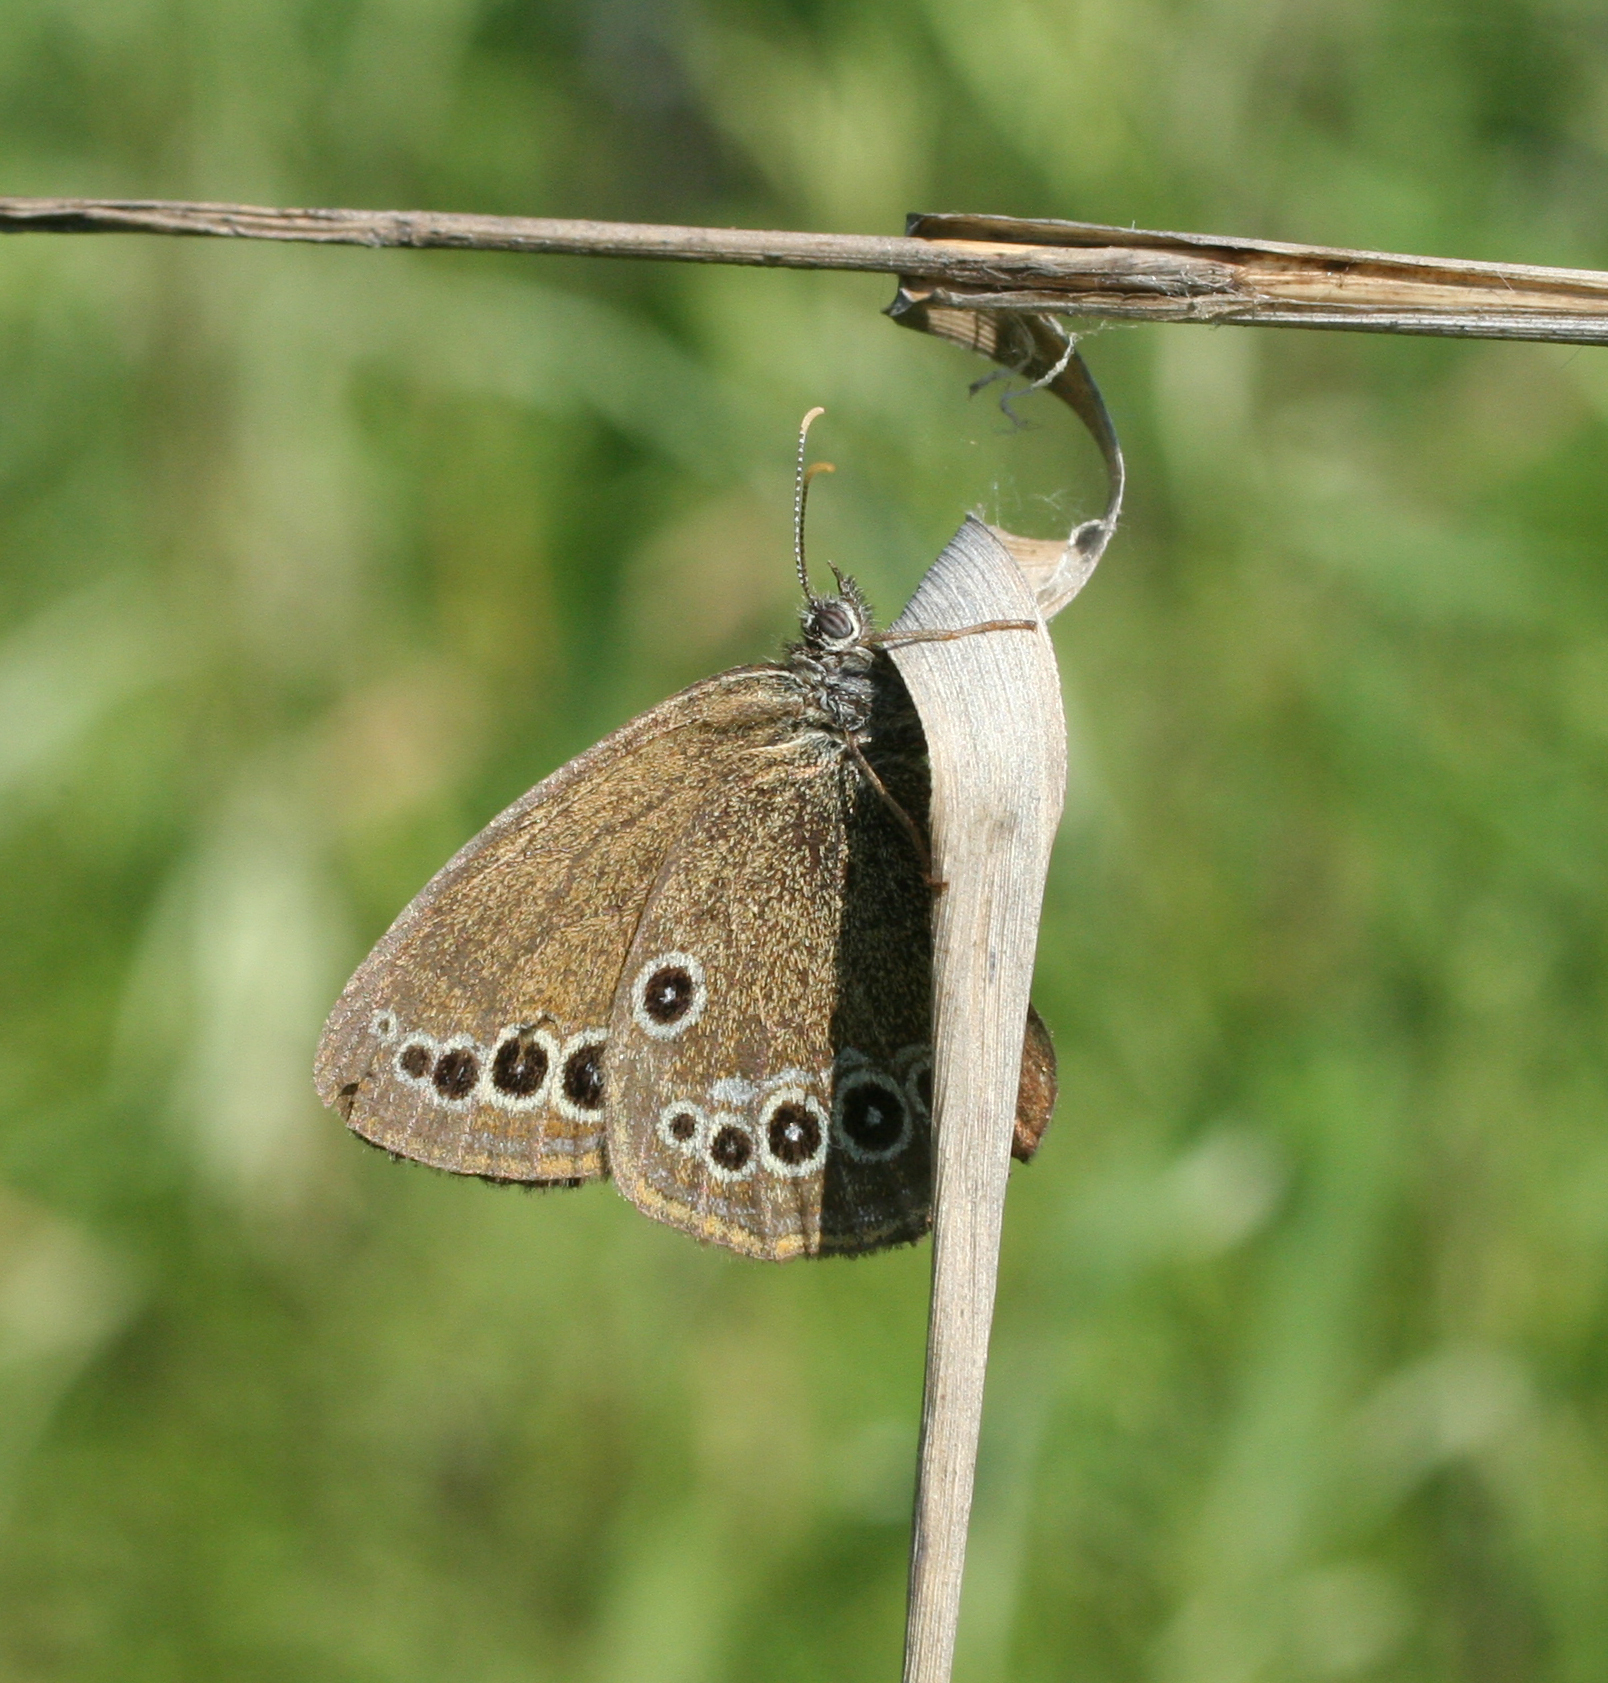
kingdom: Animalia
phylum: Arthropoda
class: Insecta
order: Lepidoptera
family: Nymphalidae
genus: Coenonympha
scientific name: Coenonympha oedippus
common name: False ringlet
